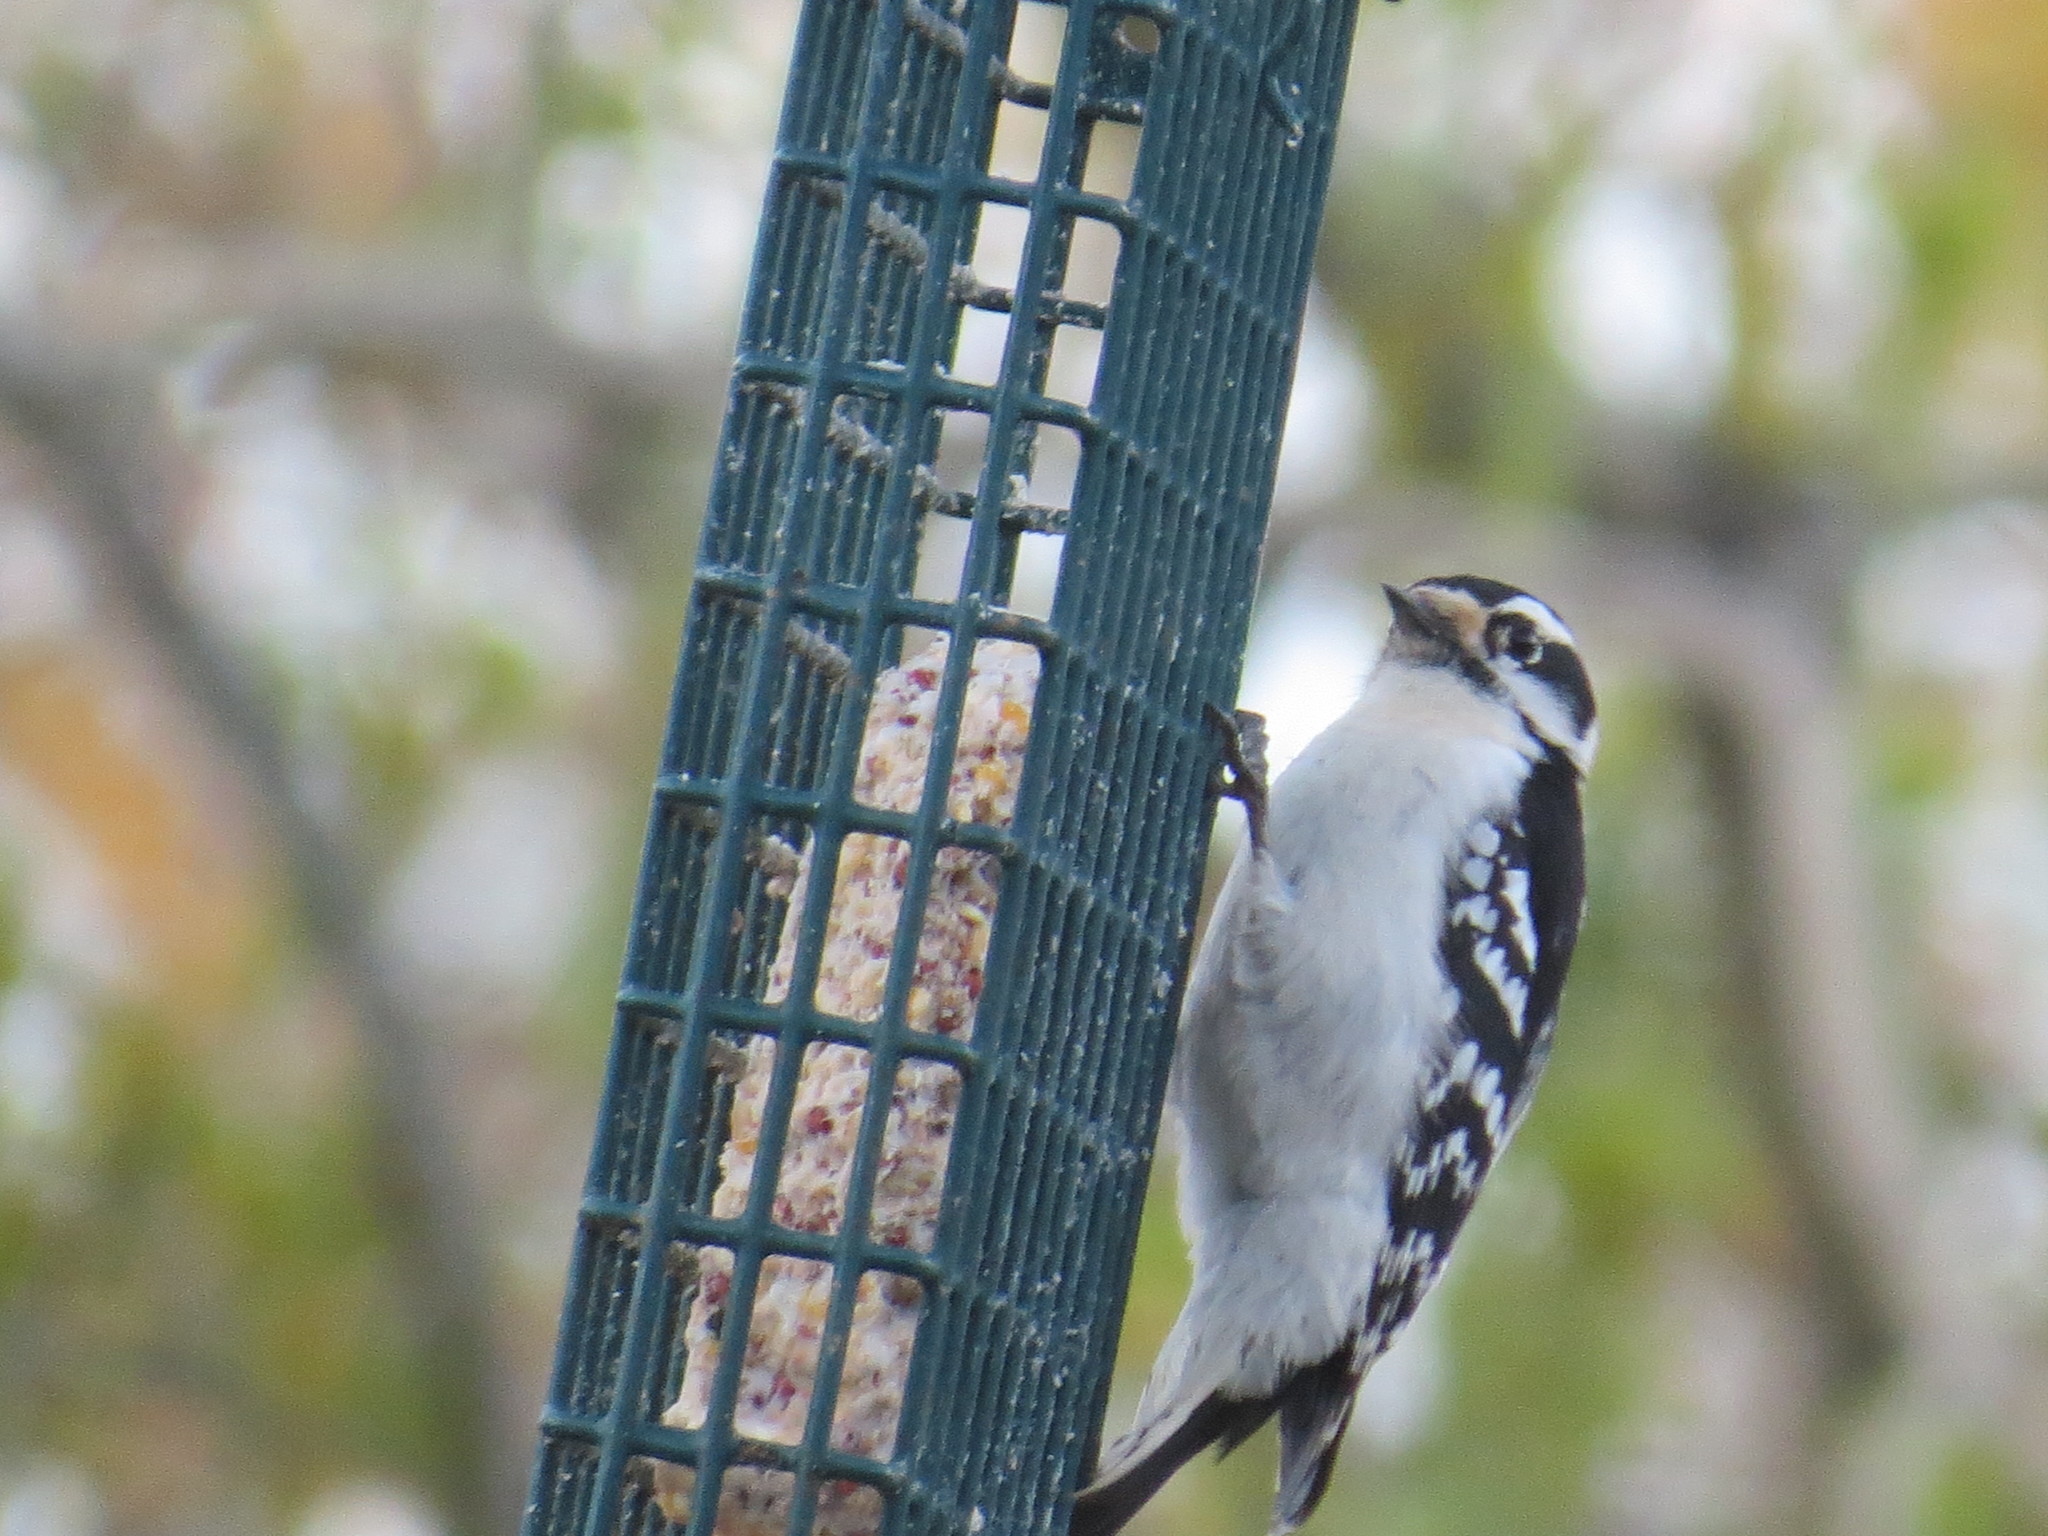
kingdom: Animalia
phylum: Chordata
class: Aves
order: Piciformes
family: Picidae
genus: Dryobates
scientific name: Dryobates pubescens
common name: Downy woodpecker
